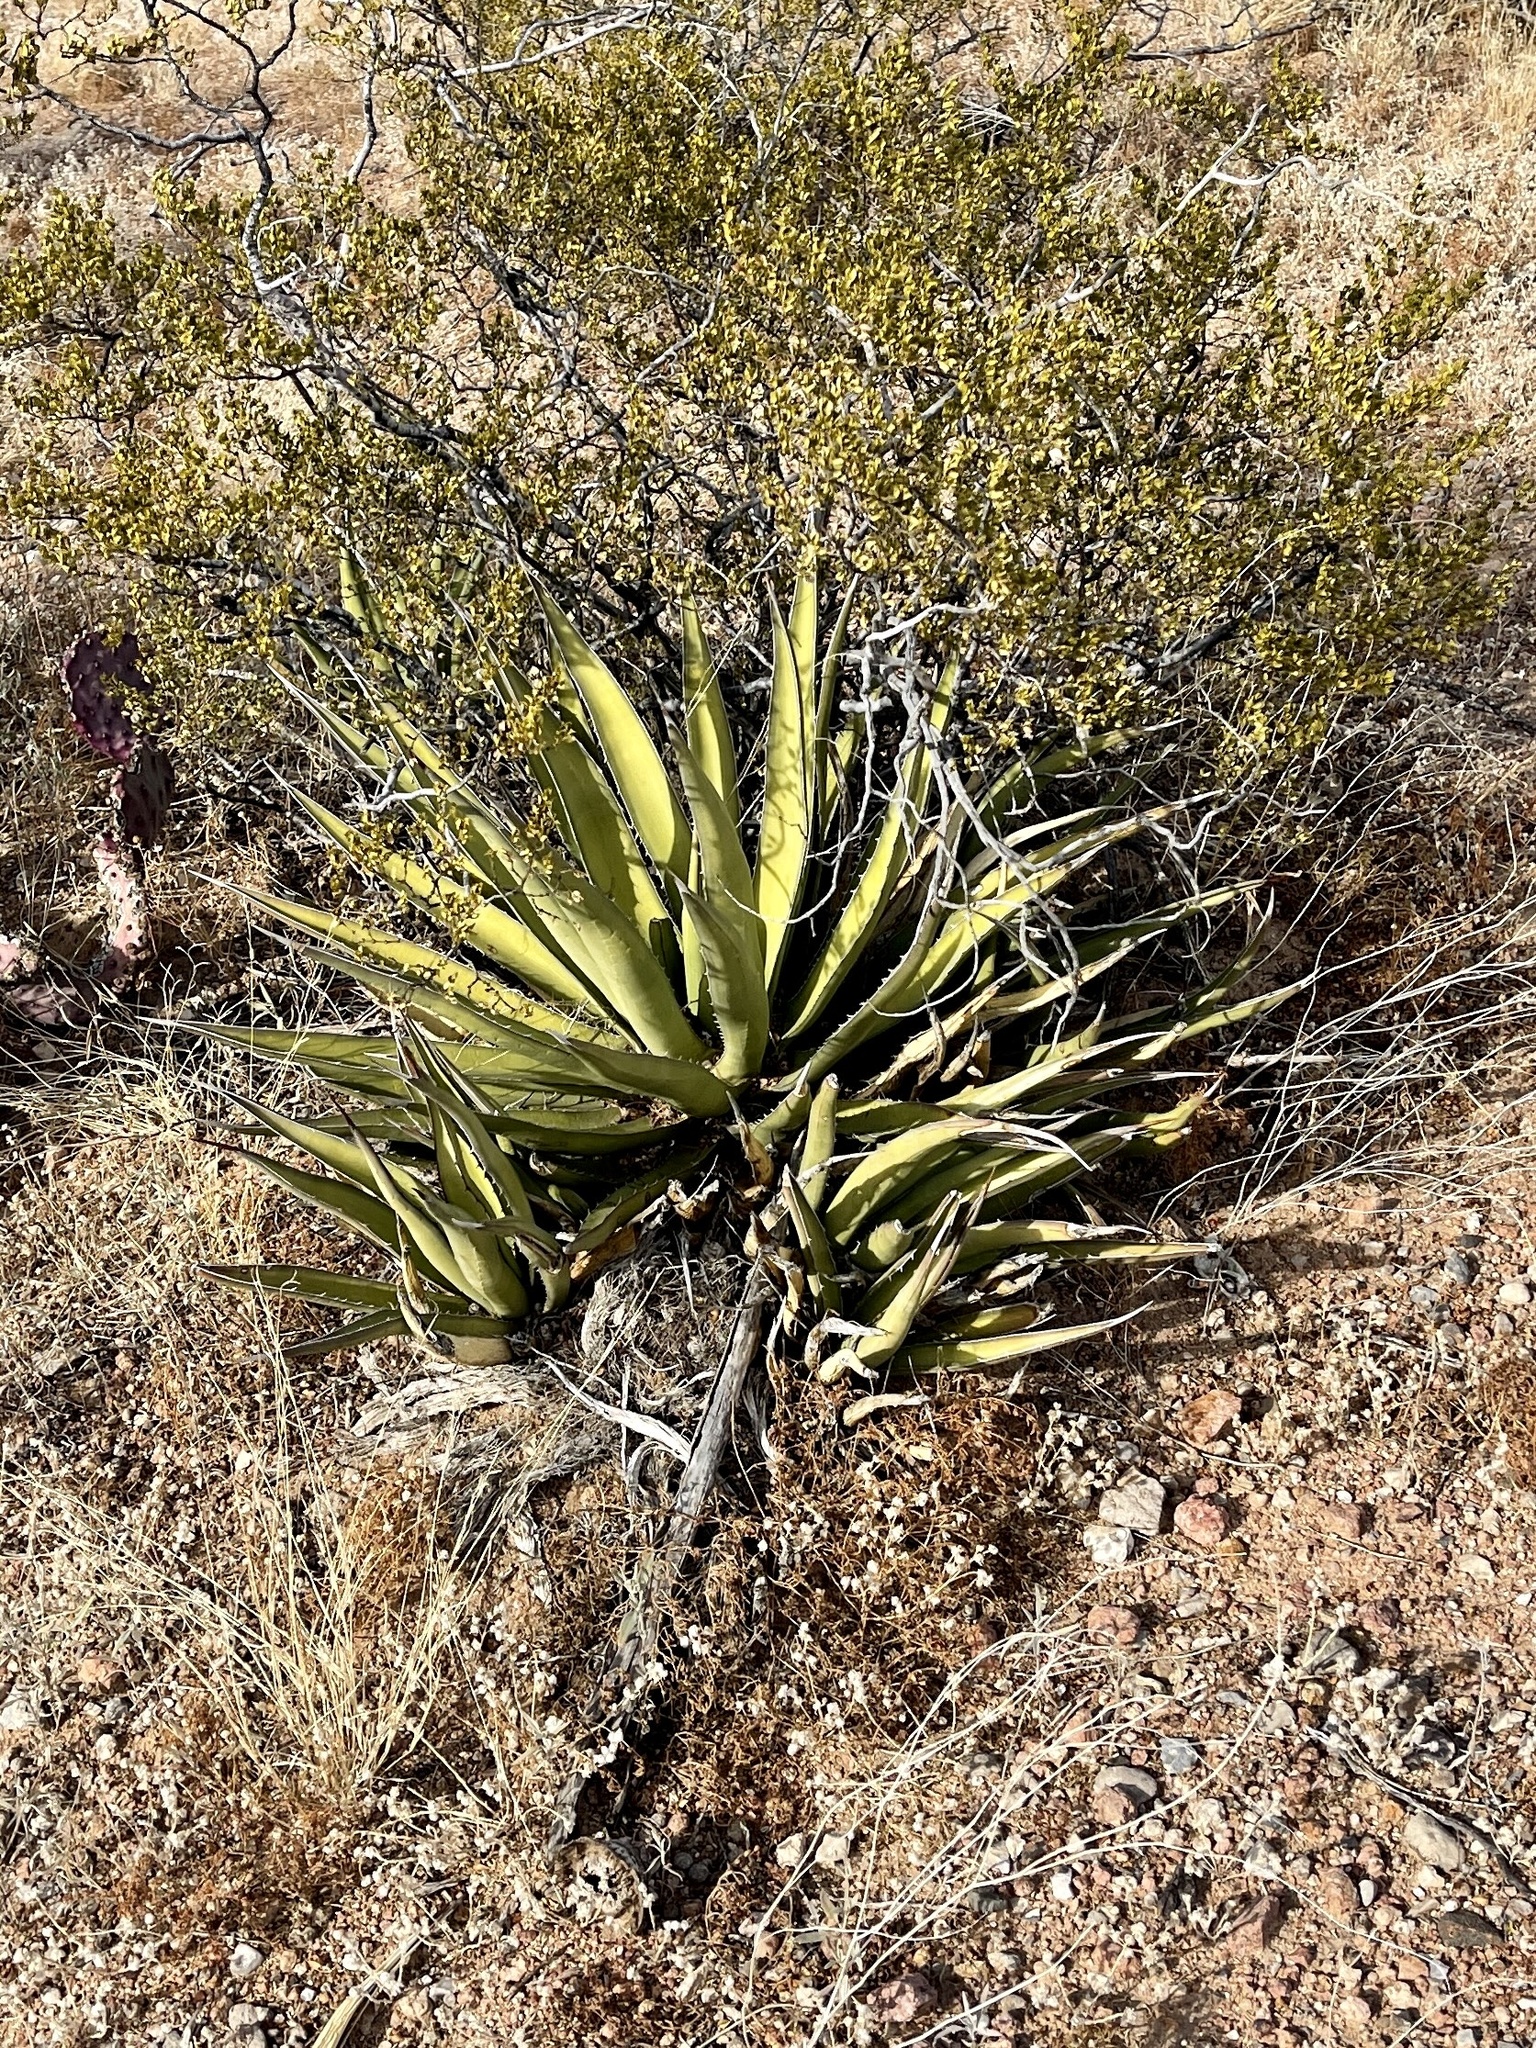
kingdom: Plantae
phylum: Tracheophyta
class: Liliopsida
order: Asparagales
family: Asparagaceae
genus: Agave
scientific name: Agave lechuguilla
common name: Lecheguilla agave
